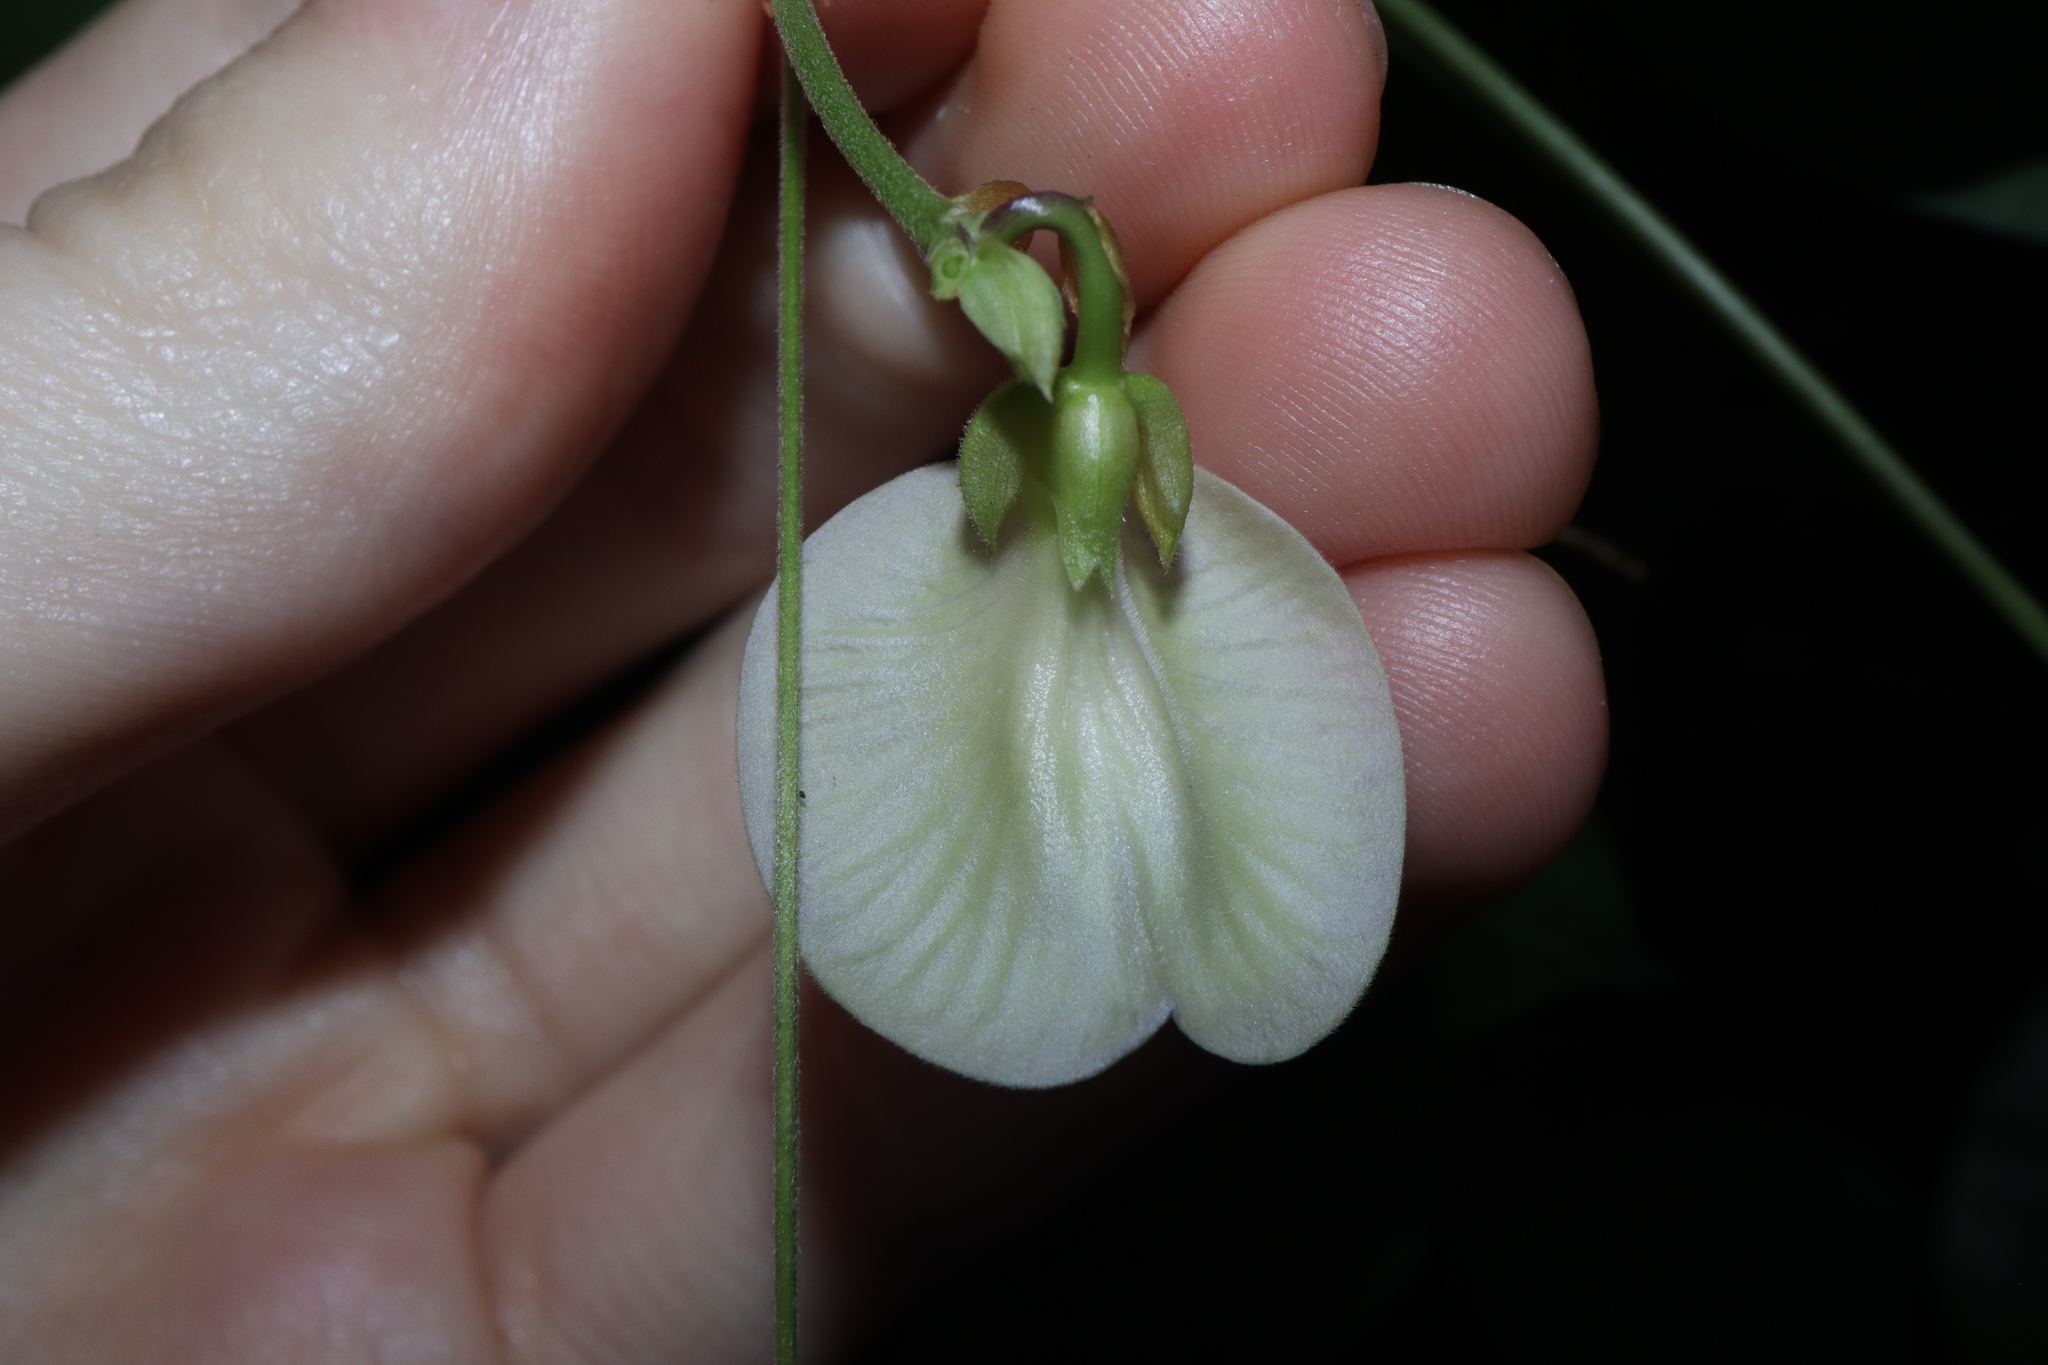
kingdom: Plantae
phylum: Tracheophyta
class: Magnoliopsida
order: Fabales
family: Fabaceae
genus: Centrosema
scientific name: Centrosema molle
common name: Soft butterfly pea
